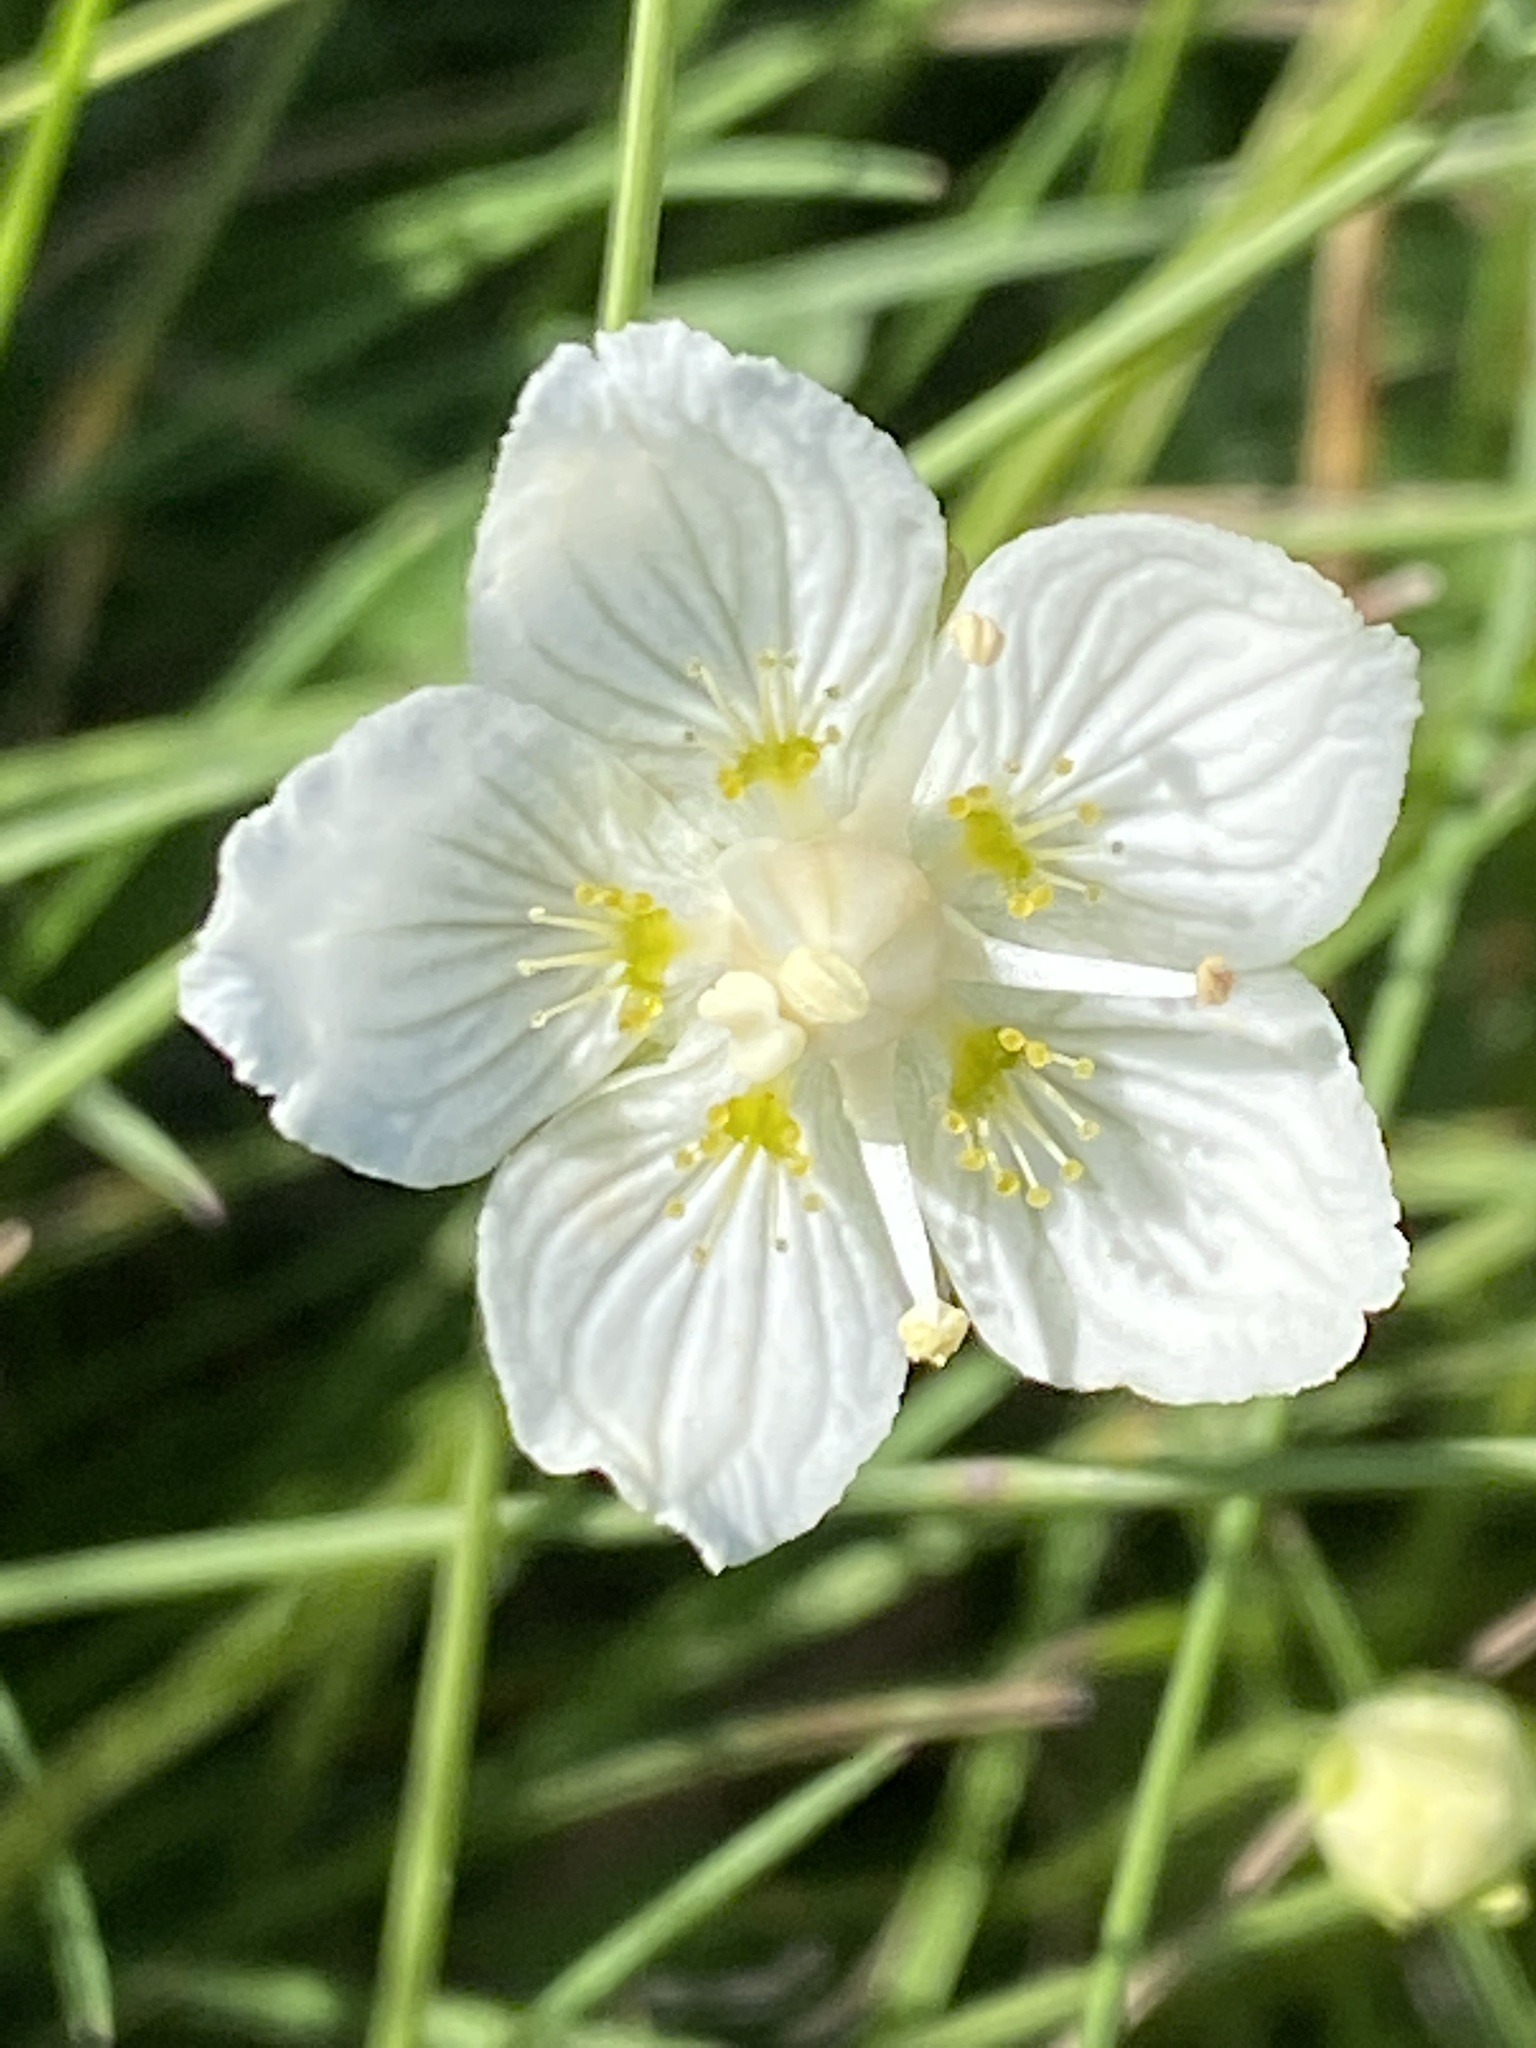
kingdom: Plantae
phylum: Tracheophyta
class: Magnoliopsida
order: Celastrales
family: Parnassiaceae
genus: Parnassia
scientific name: Parnassia palustris
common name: Grass-of-parnassus
